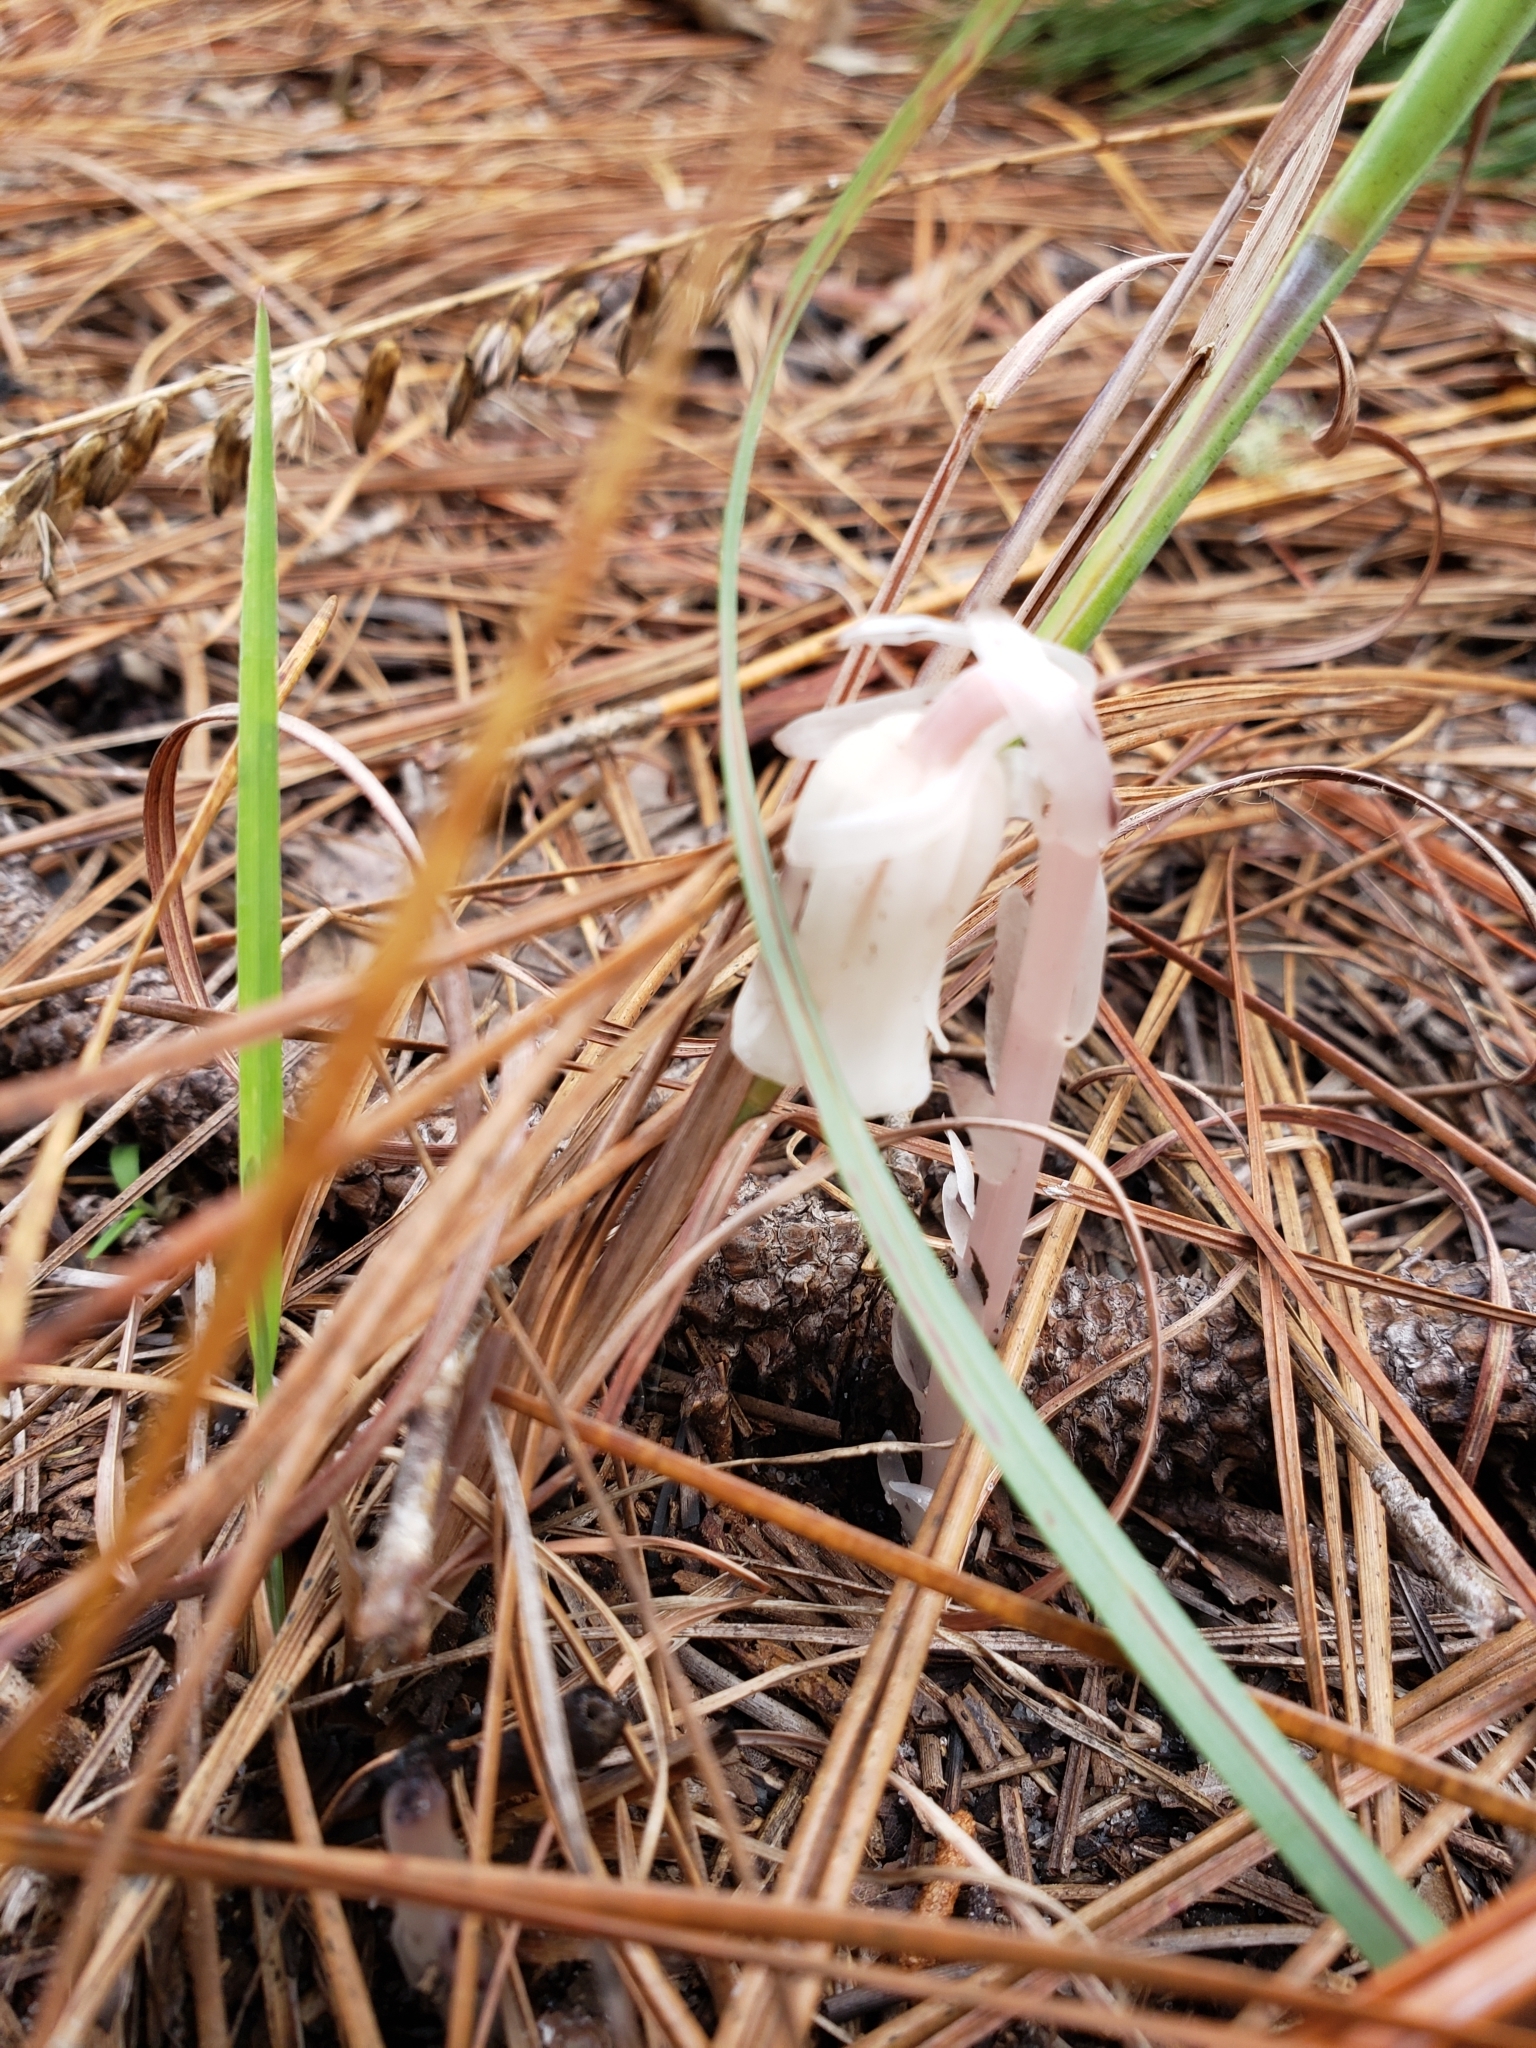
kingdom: Plantae
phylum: Tracheophyta
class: Magnoliopsida
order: Ericales
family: Ericaceae
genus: Monotropa
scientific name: Monotropa uniflora
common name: Convulsion root
